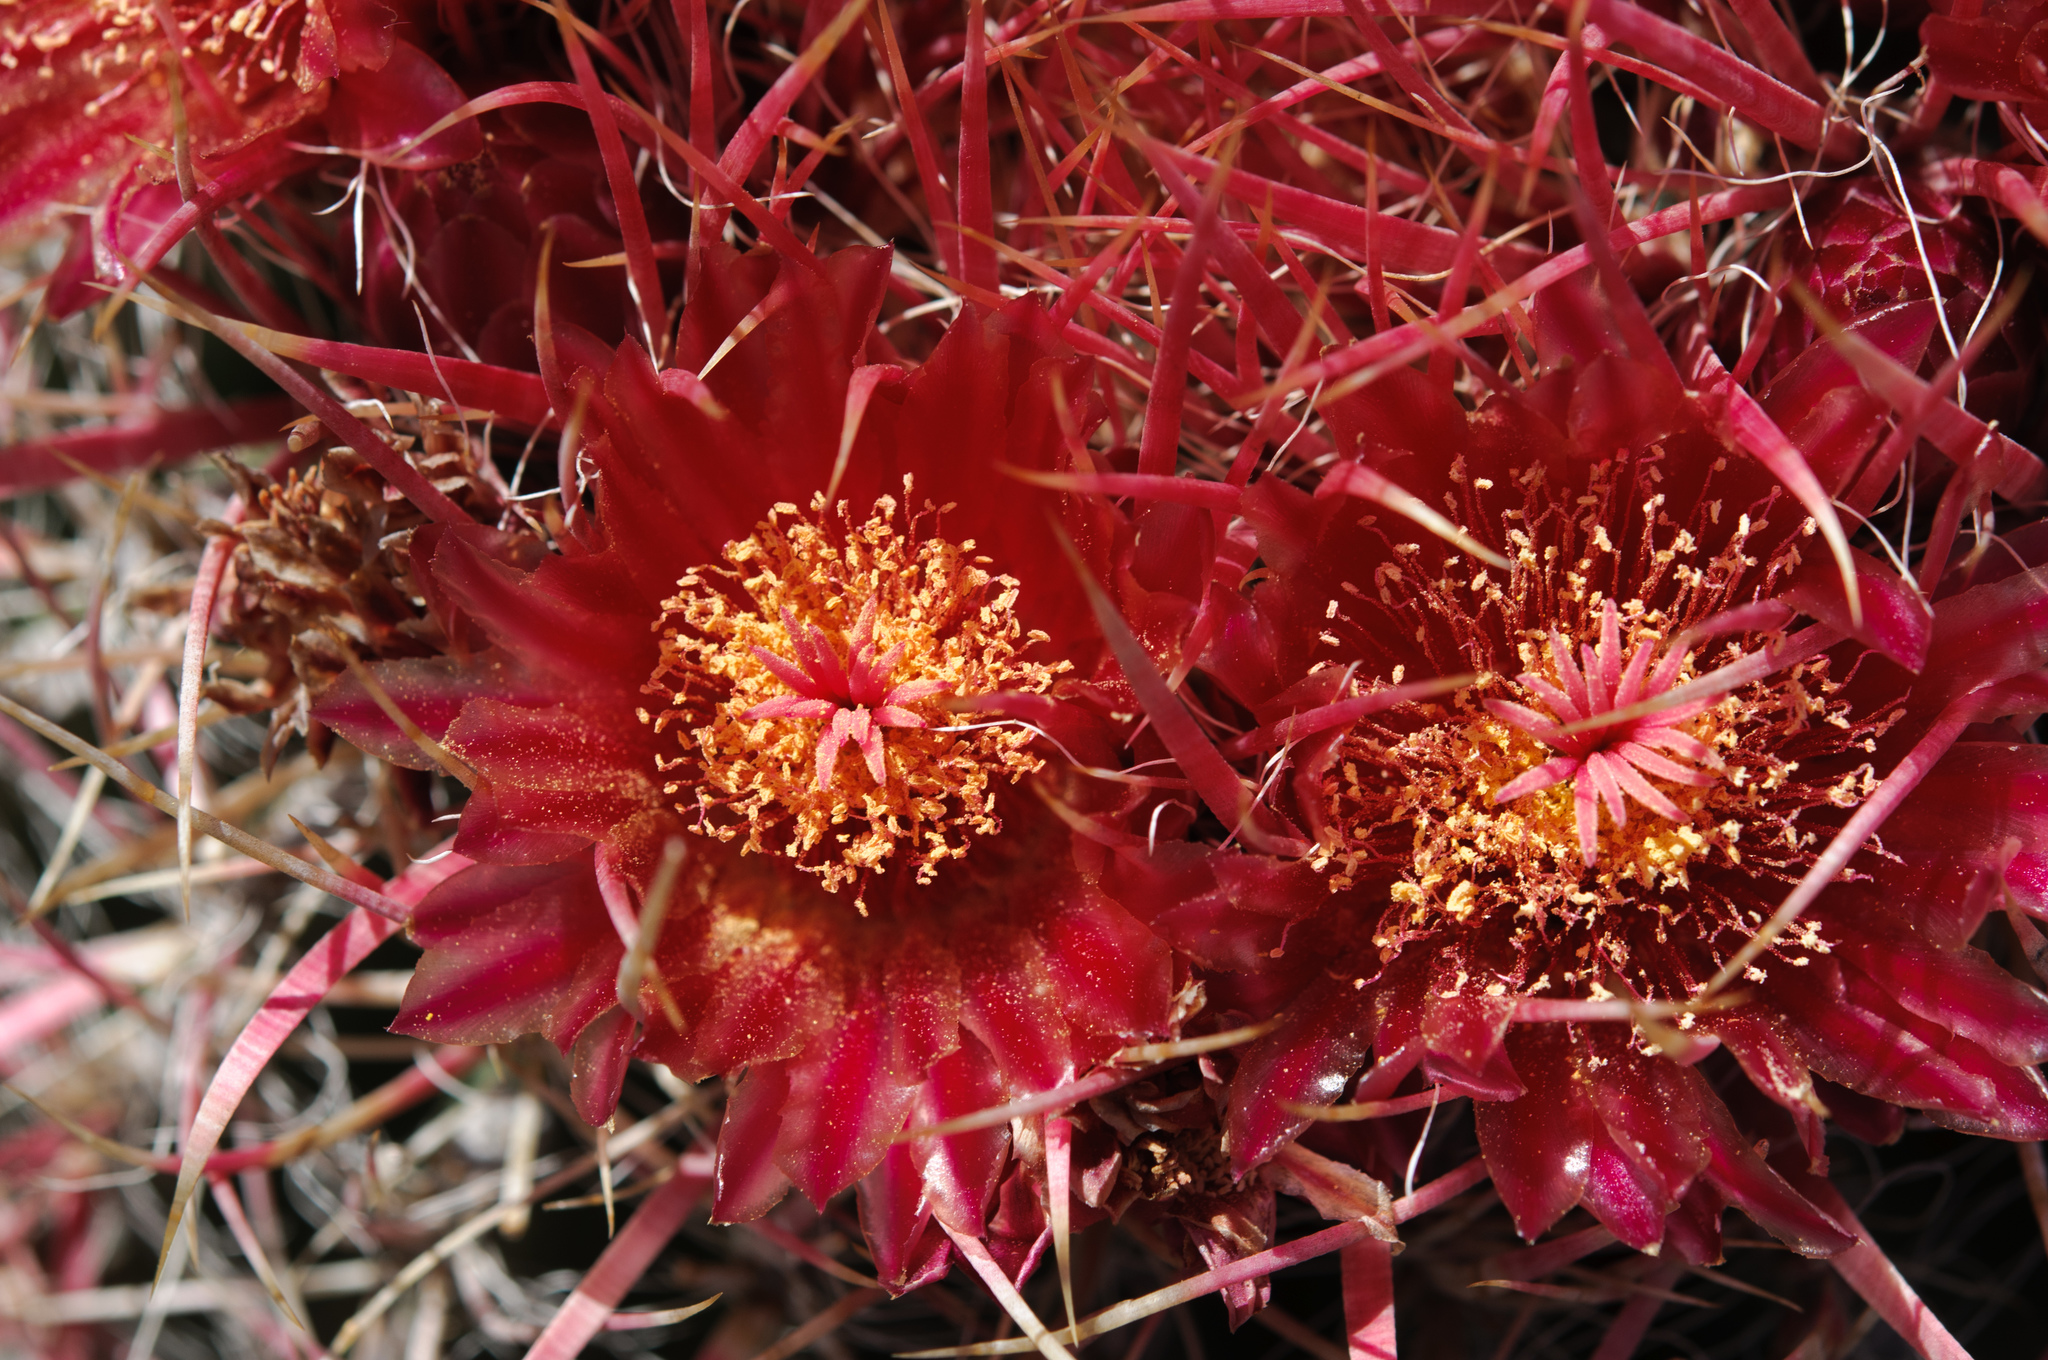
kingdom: Plantae
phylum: Tracheophyta
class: Magnoliopsida
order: Caryophyllales
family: Cactaceae
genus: Ferocactus
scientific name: Ferocactus gracilis
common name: Fire barrel cactus
